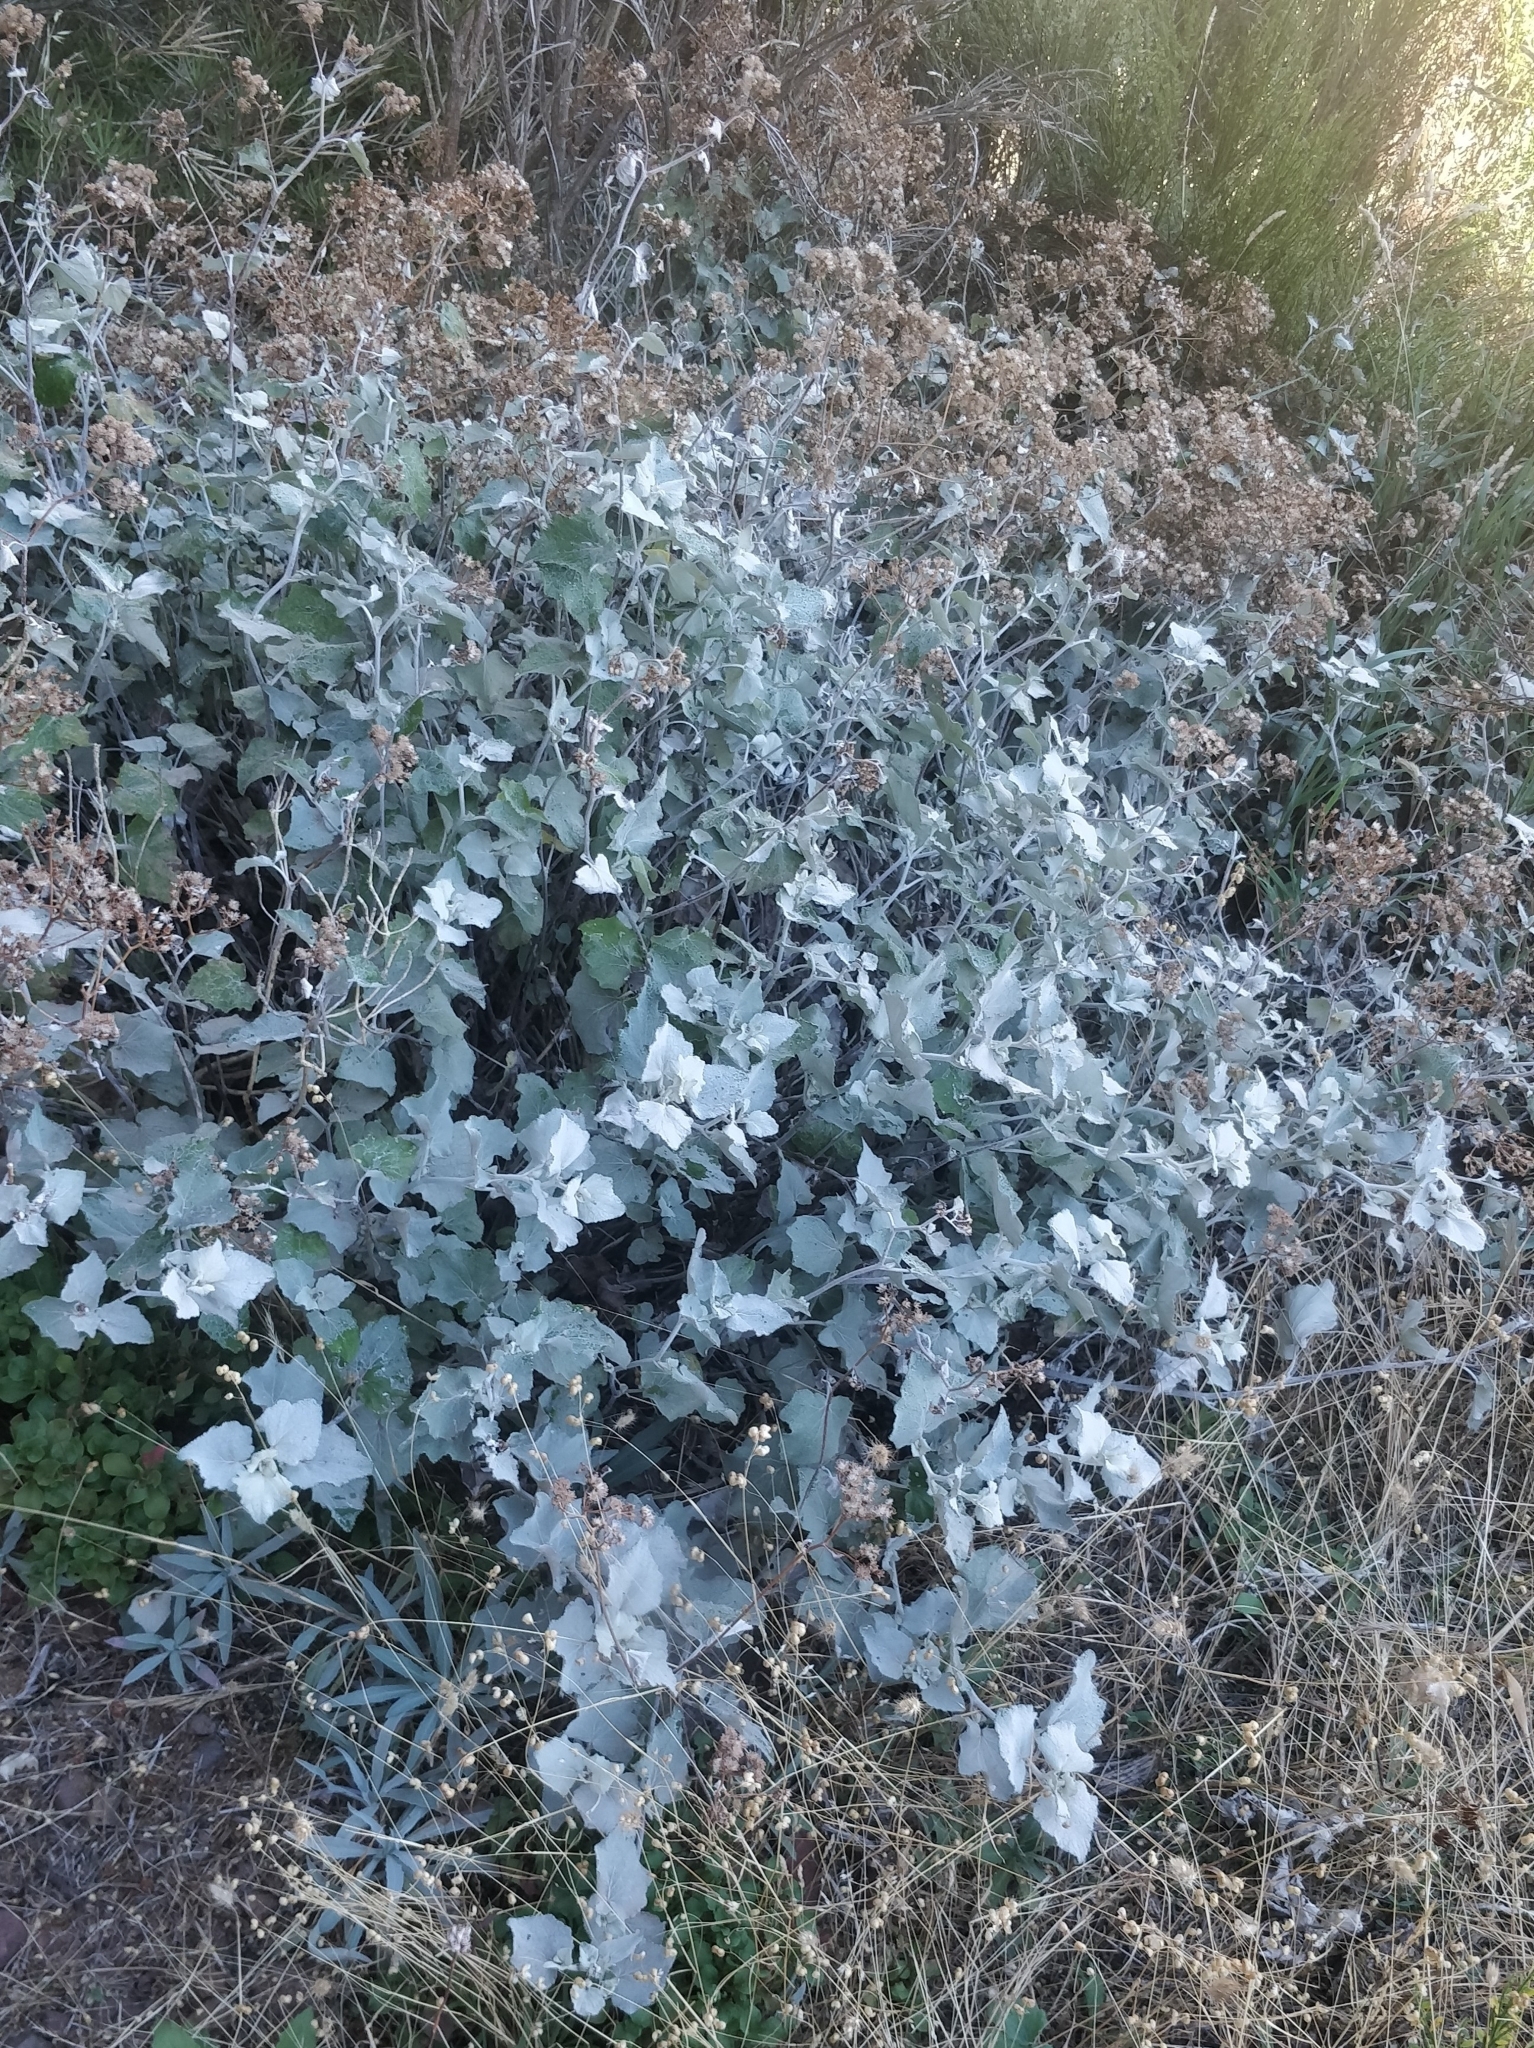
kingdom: Plantae
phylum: Tracheophyta
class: Magnoliopsida
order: Asterales
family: Asteraceae
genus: Pericallis
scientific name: Pericallis aurita
